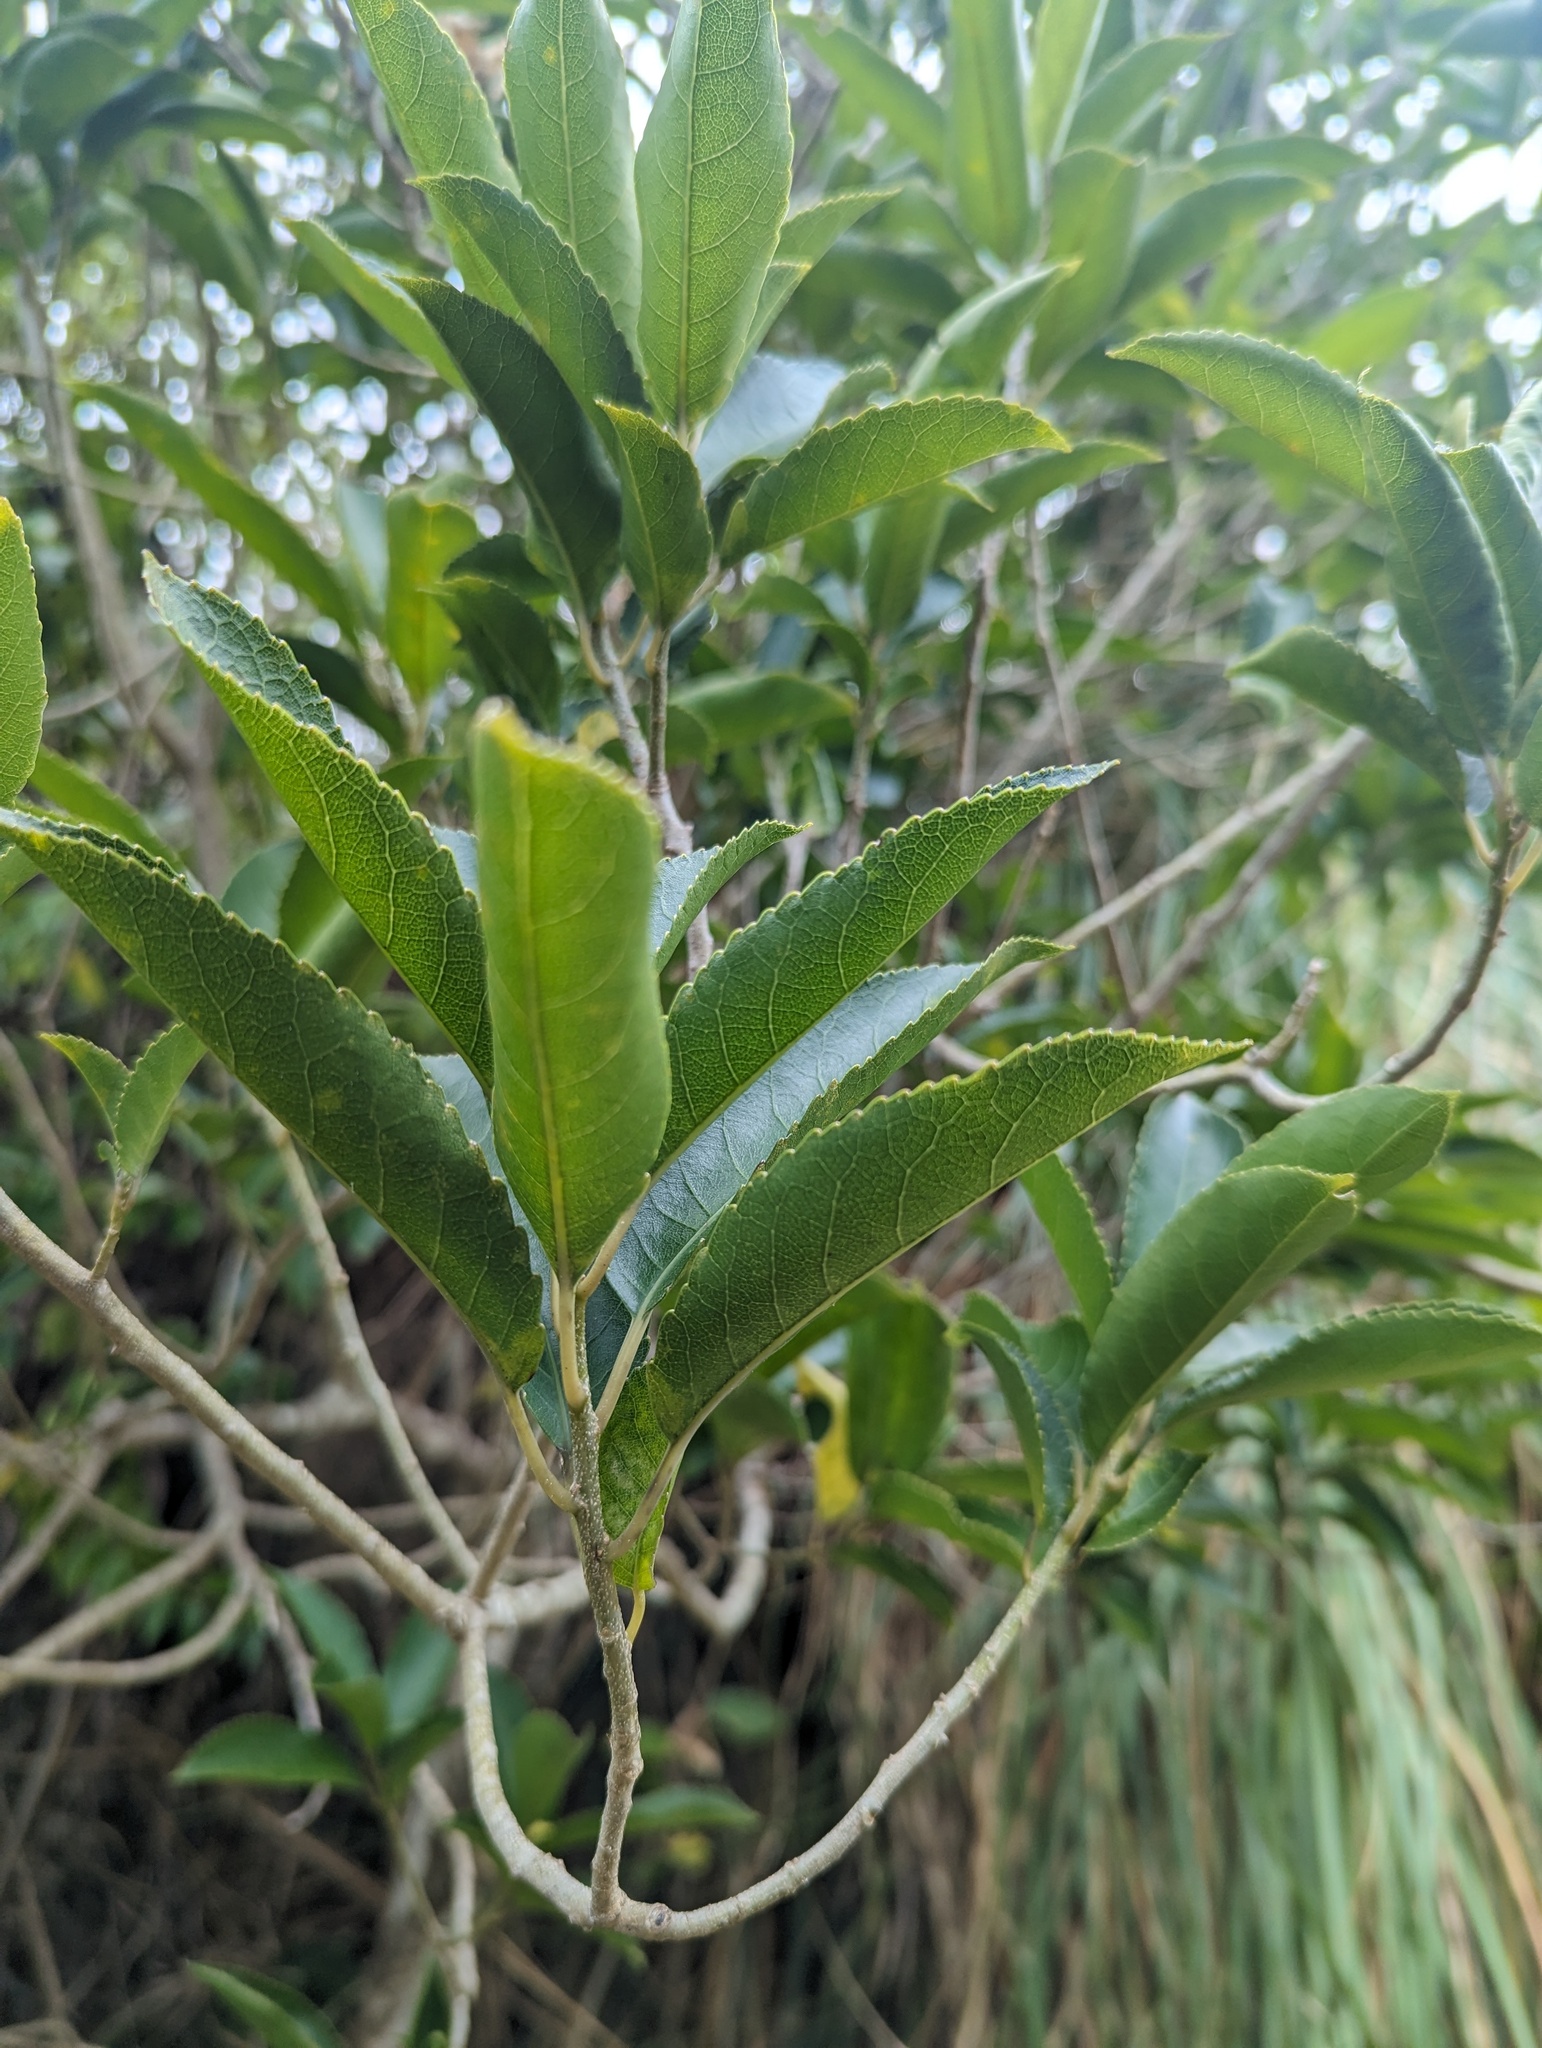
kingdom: Plantae
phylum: Tracheophyta
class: Magnoliopsida
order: Malpighiales
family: Violaceae
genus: Melicytus
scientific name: Melicytus ramiflorus
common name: Mahoe
